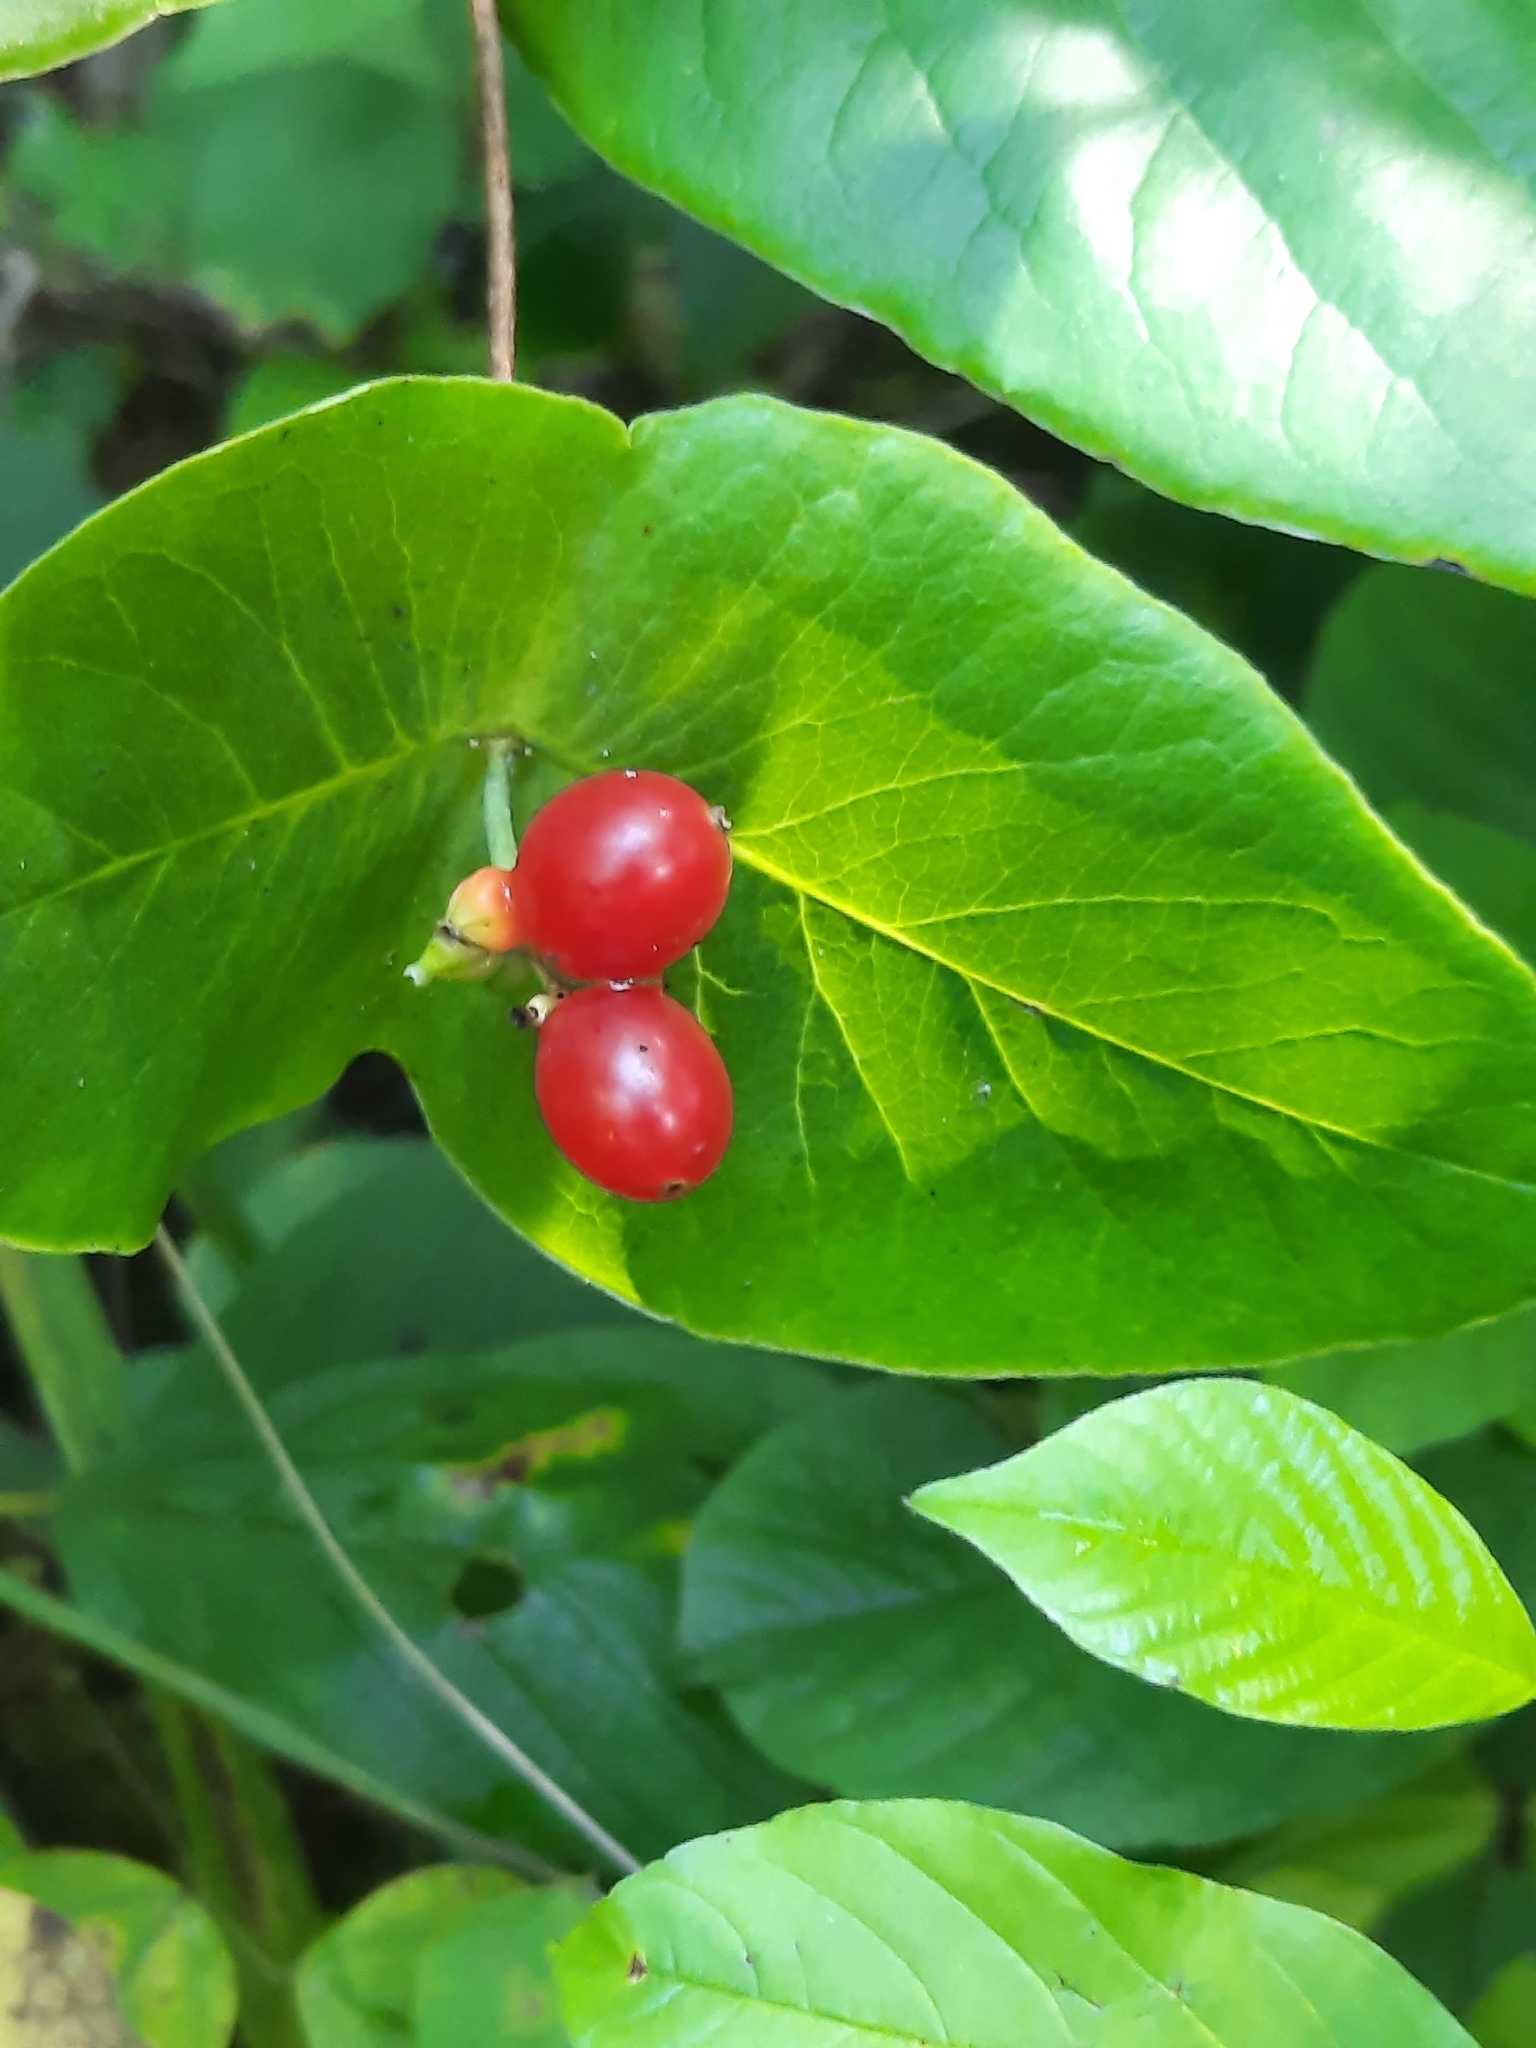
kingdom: Plantae
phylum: Tracheophyta
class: Magnoliopsida
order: Dipsacales
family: Caprifoliaceae
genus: Lonicera
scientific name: Lonicera dioica
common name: Limber honeysuckle
